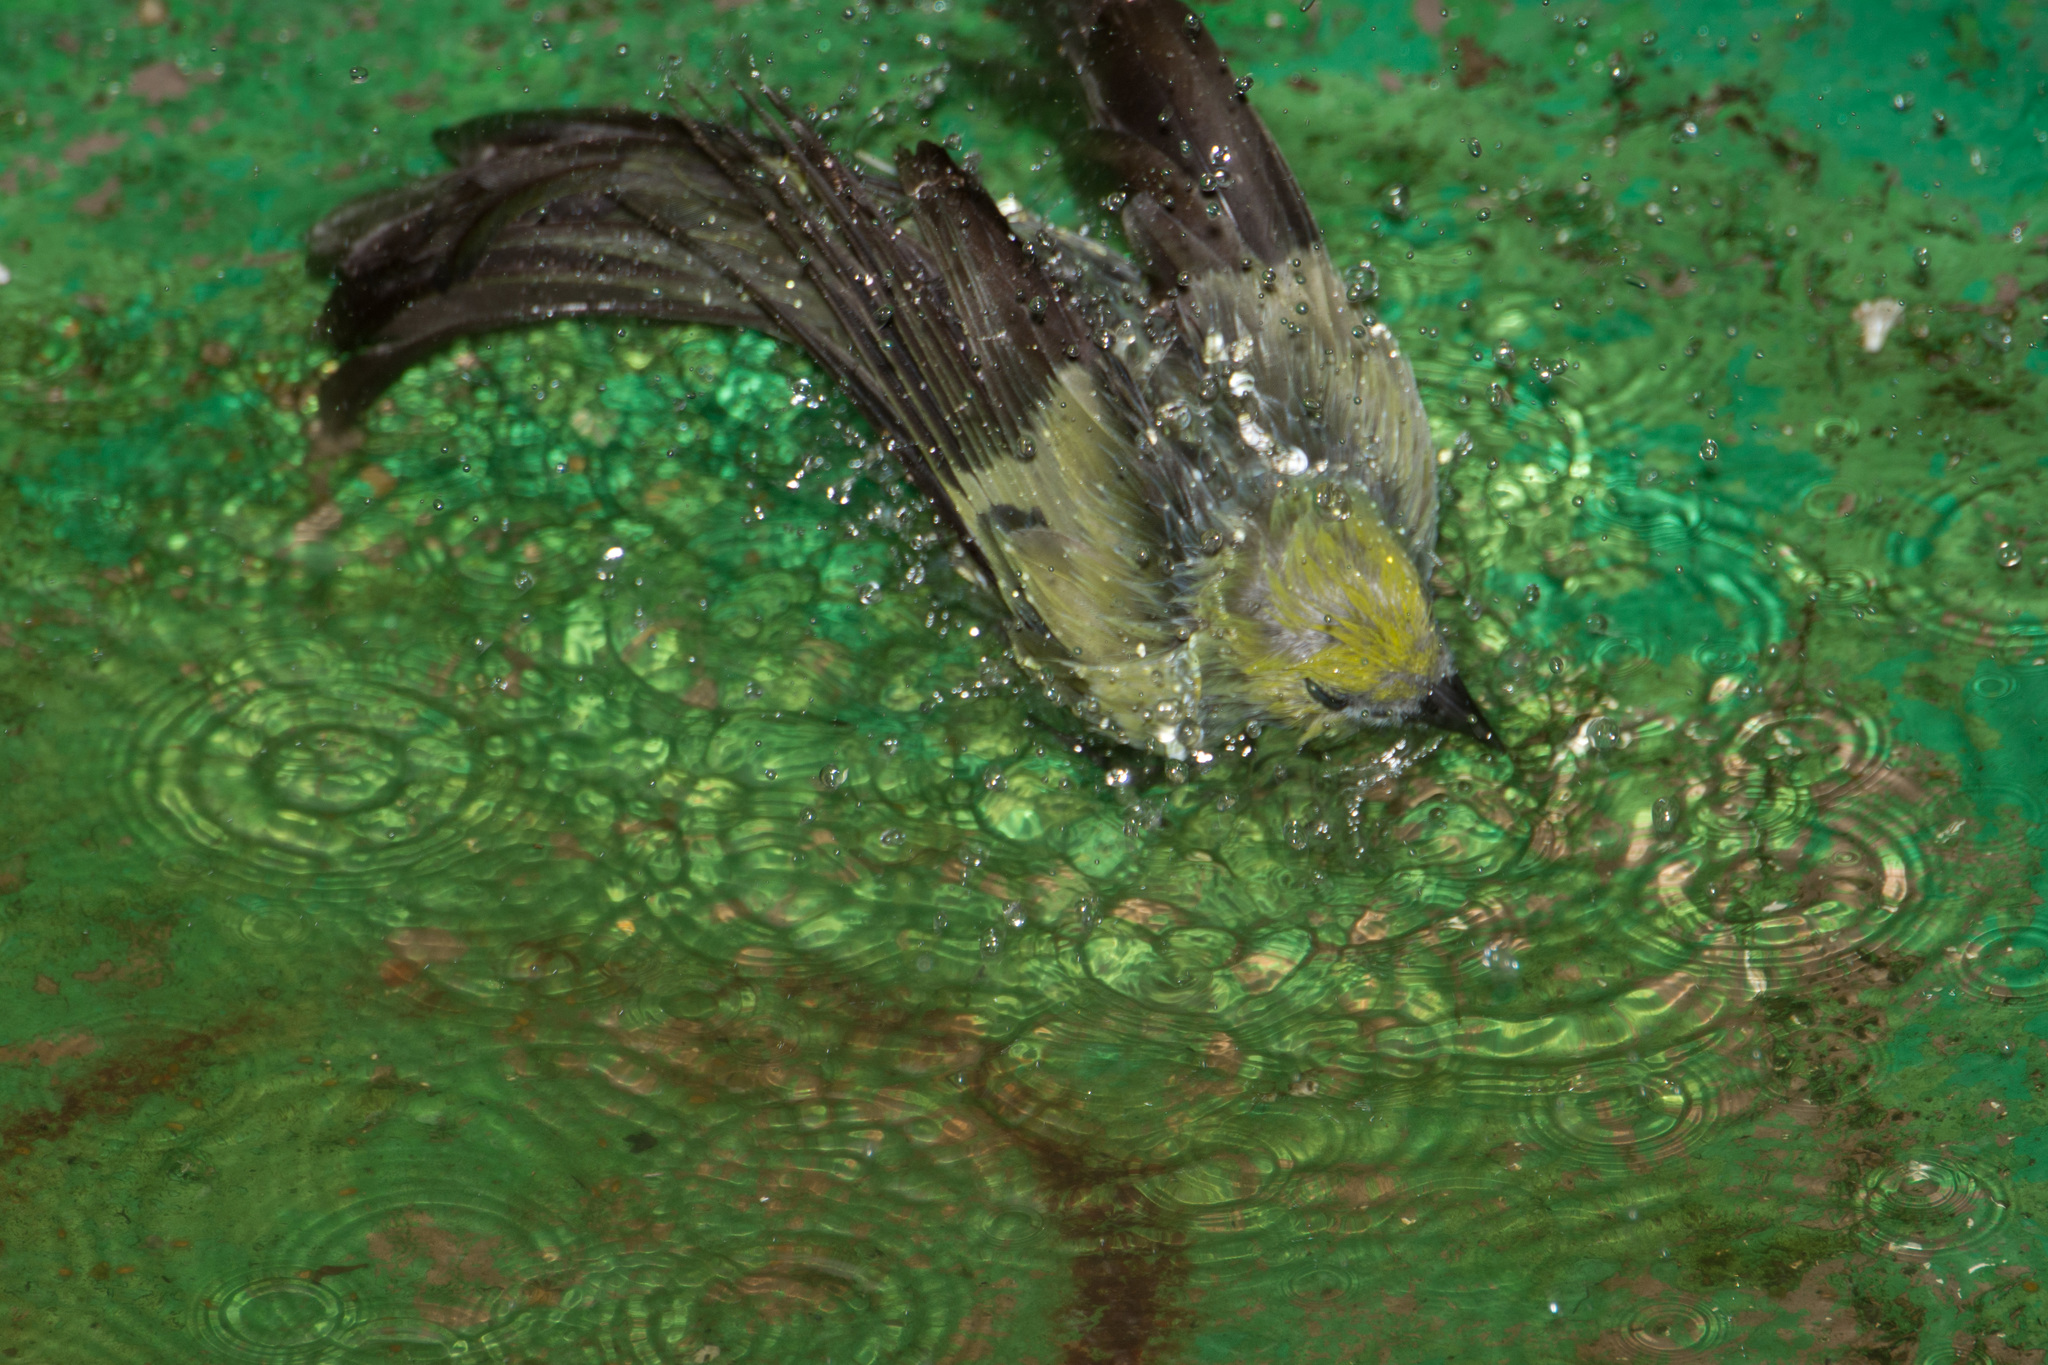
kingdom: Animalia
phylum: Chordata
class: Aves
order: Passeriformes
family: Thraupidae
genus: Thraupis
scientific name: Thraupis palmarum
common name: Palm tanager
